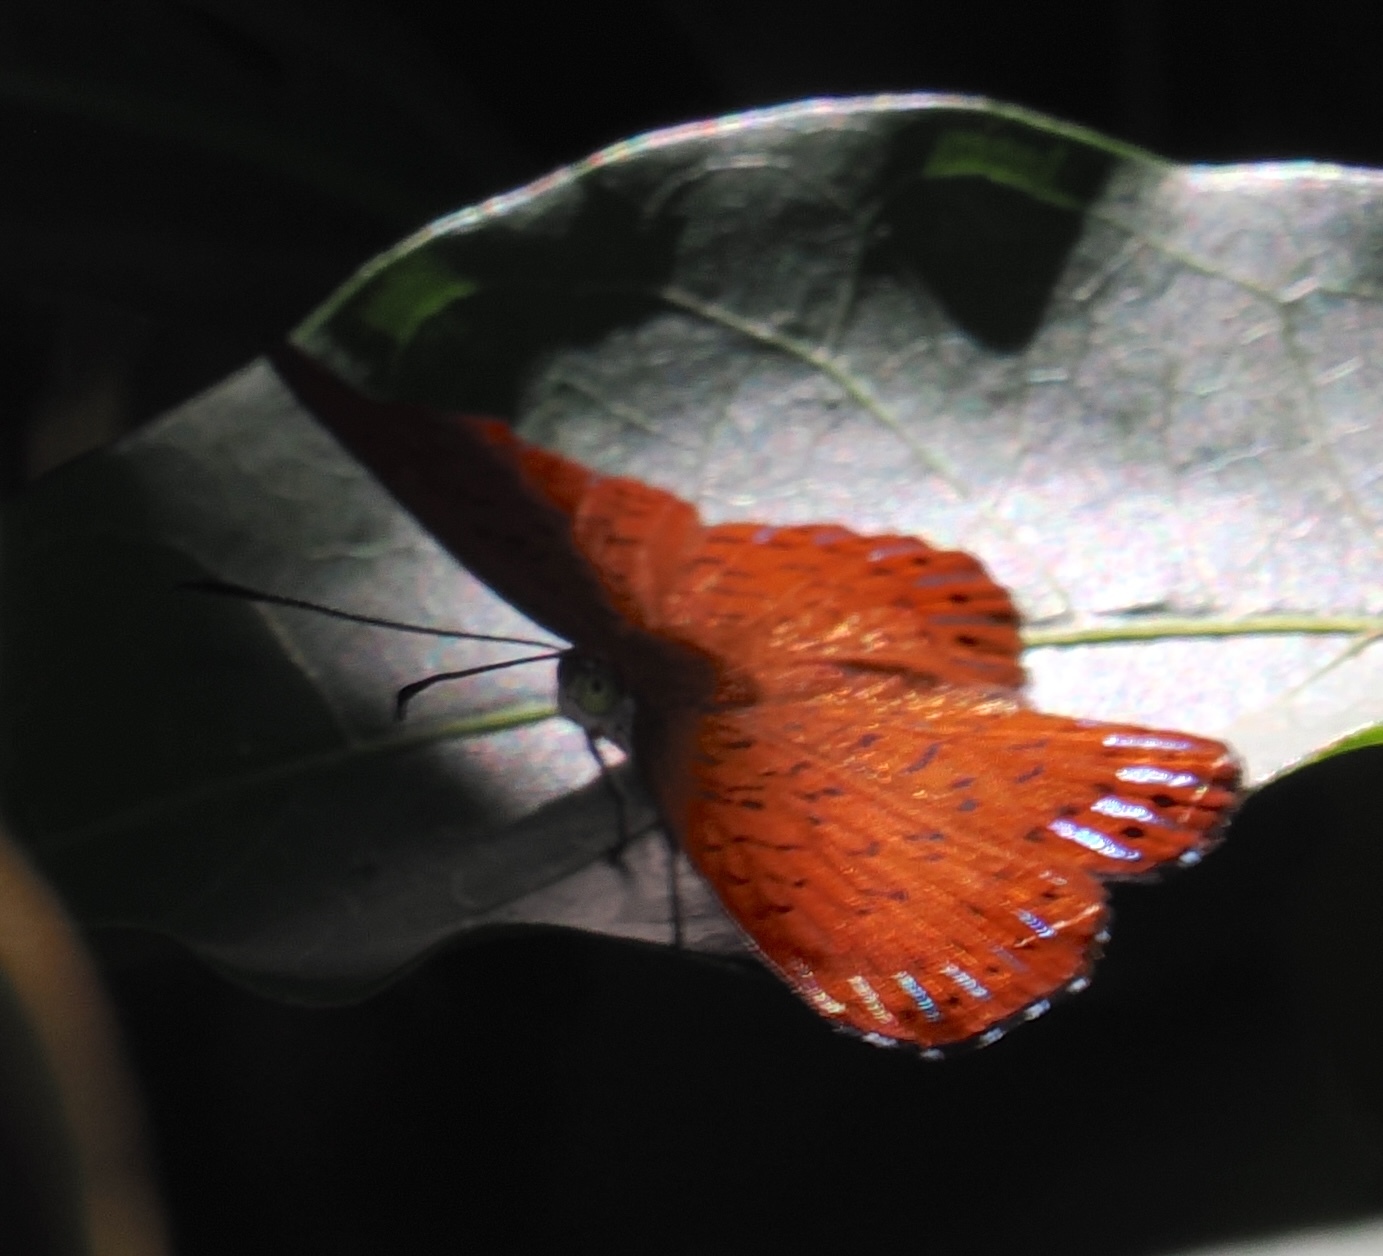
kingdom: Animalia
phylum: Arthropoda
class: Insecta
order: Lepidoptera
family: Riodinidae
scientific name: Riodinidae
